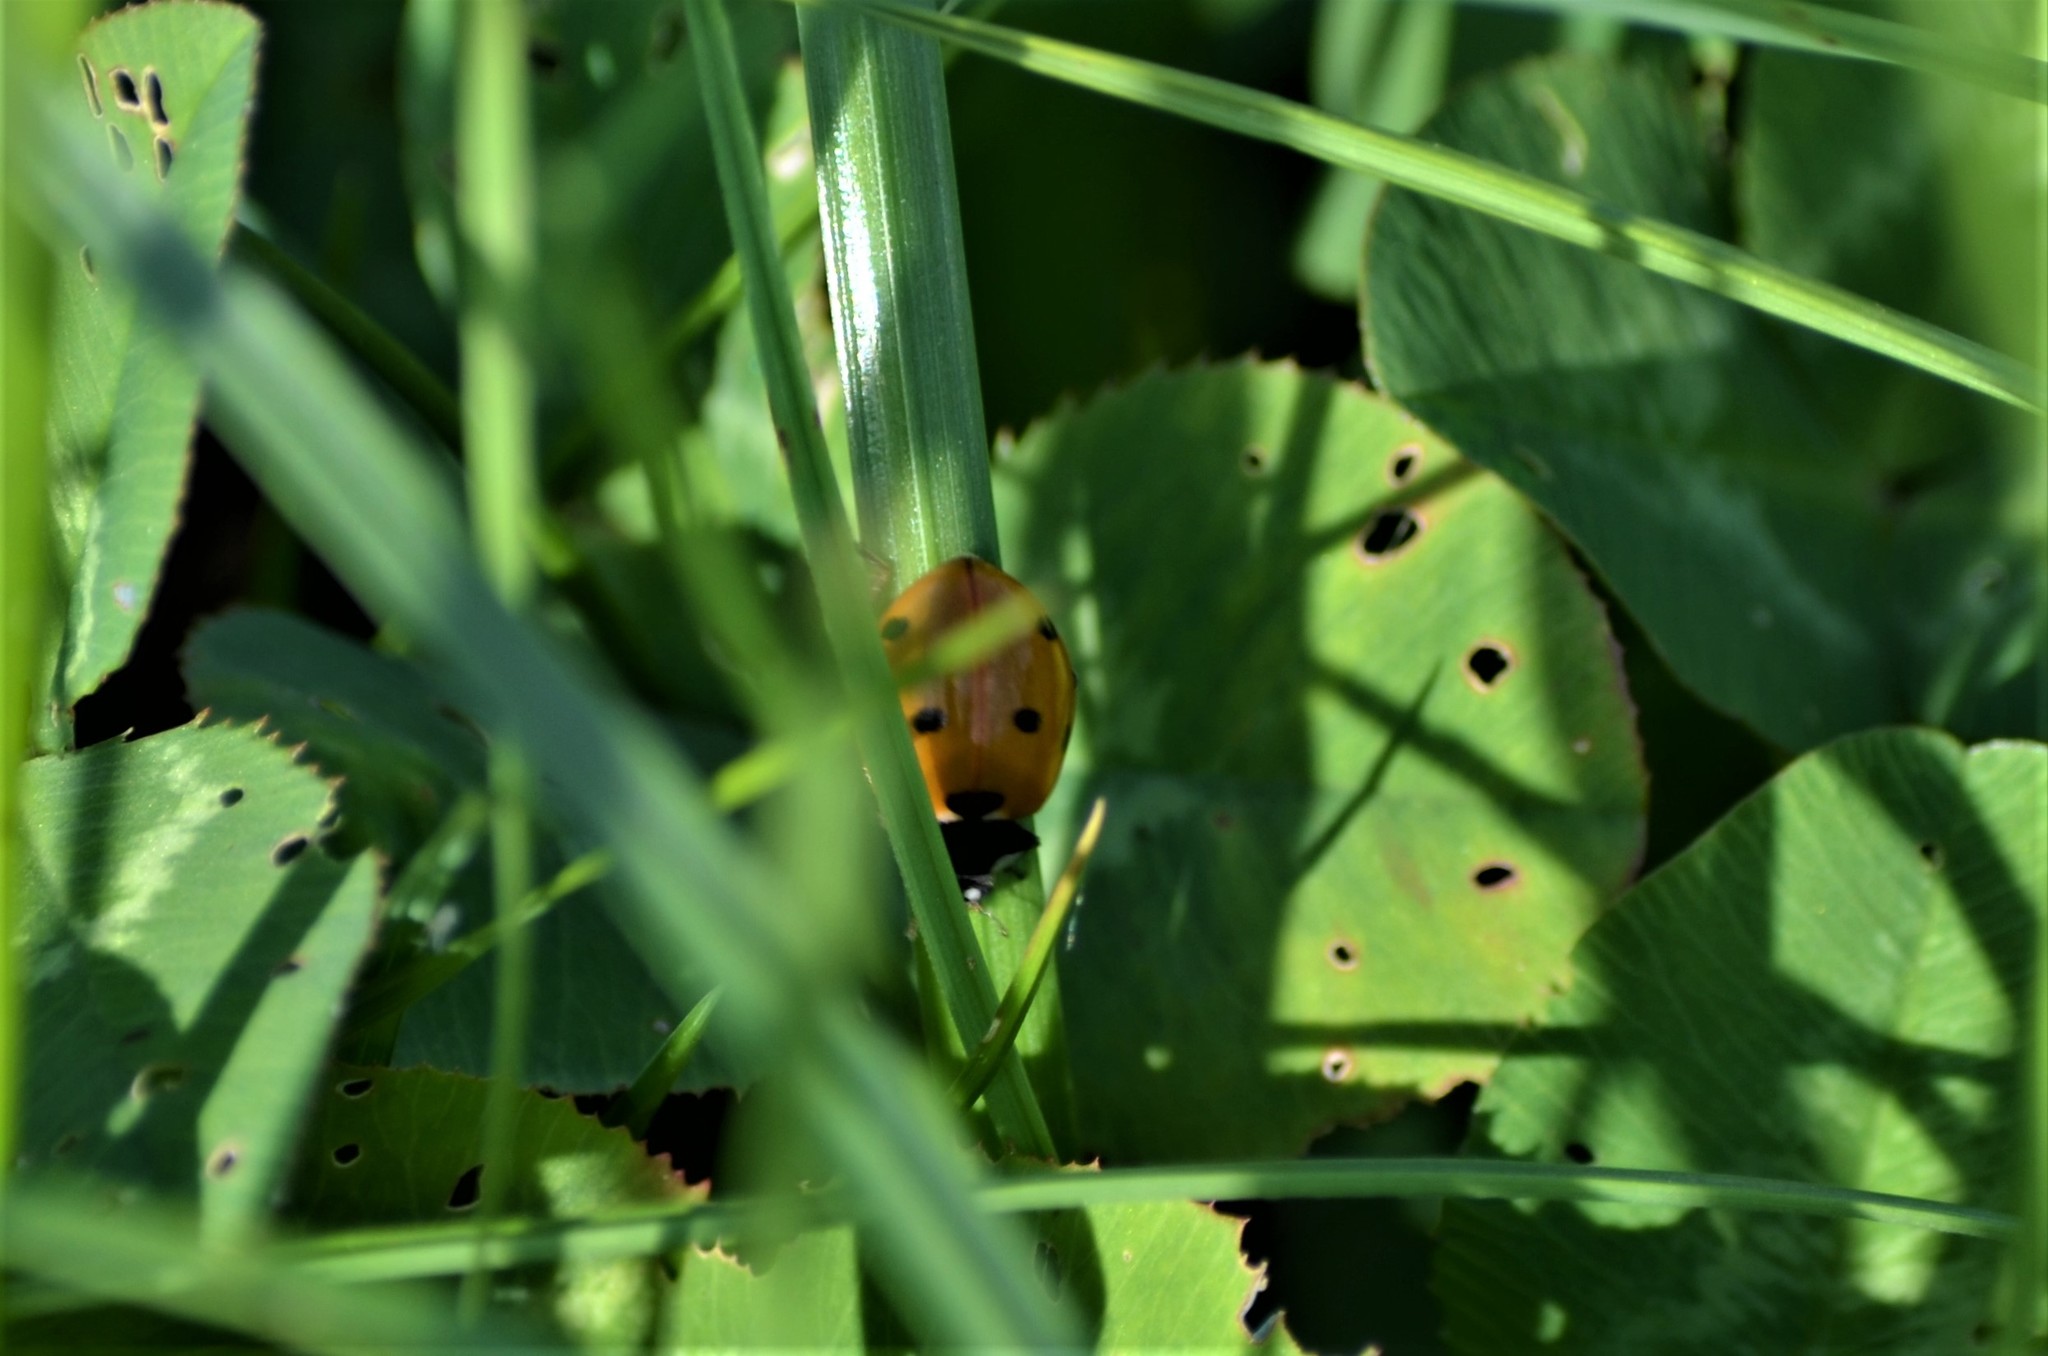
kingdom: Animalia
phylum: Arthropoda
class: Insecta
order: Coleoptera
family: Coccinellidae
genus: Coccinella
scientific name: Coccinella septempunctata
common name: Sevenspotted lady beetle
